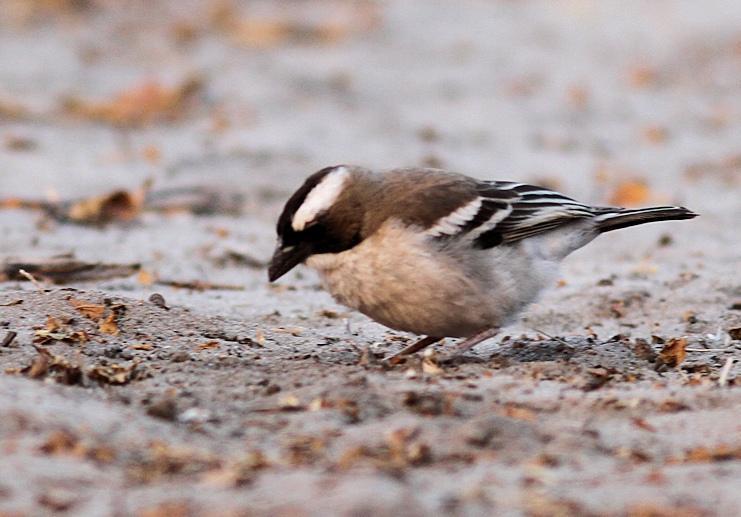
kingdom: Animalia
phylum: Chordata
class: Aves
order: Passeriformes
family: Passeridae
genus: Plocepasser
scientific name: Plocepasser mahali
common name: White-browed sparrow-weaver
